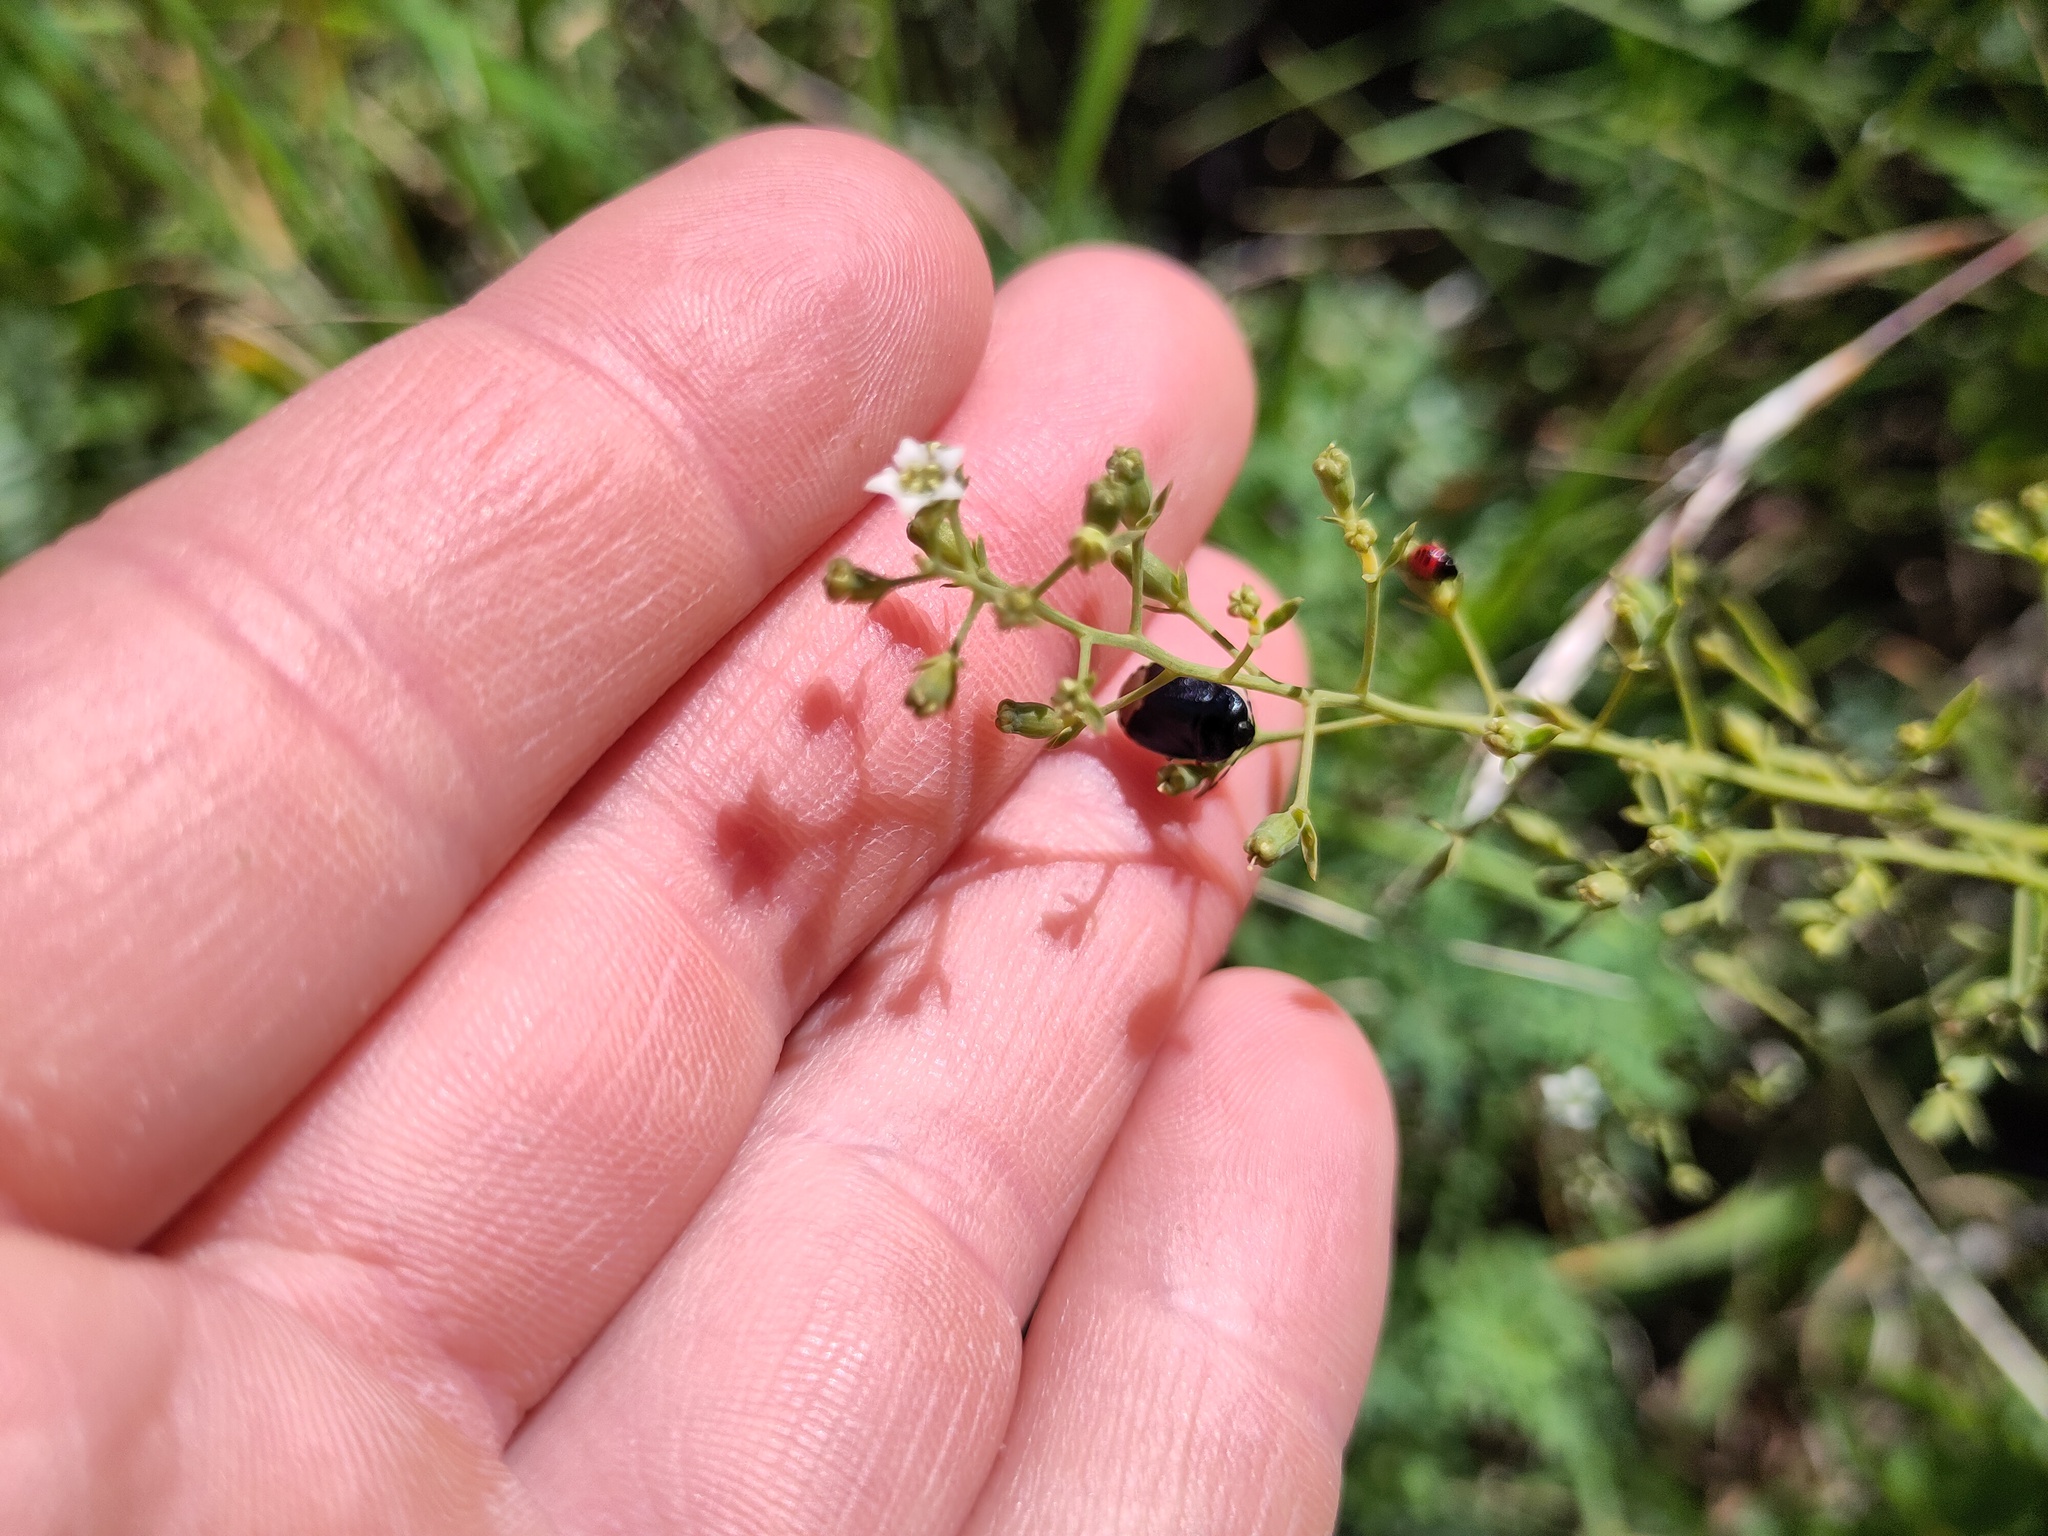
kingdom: Plantae
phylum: Tracheophyta
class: Magnoliopsida
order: Santalales
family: Thesiaceae
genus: Thesium
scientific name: Thesium linophyllon
